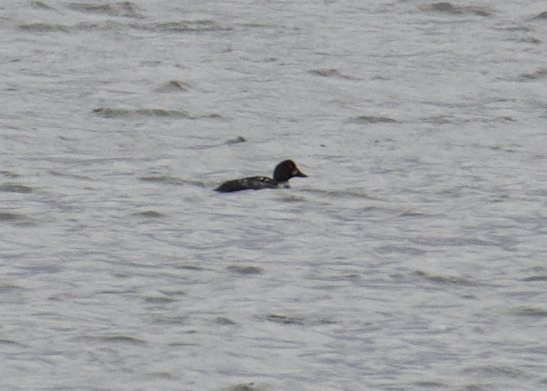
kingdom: Animalia
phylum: Chordata
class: Aves
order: Anseriformes
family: Anatidae
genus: Bucephala
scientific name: Bucephala clangula
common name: Common goldeneye
